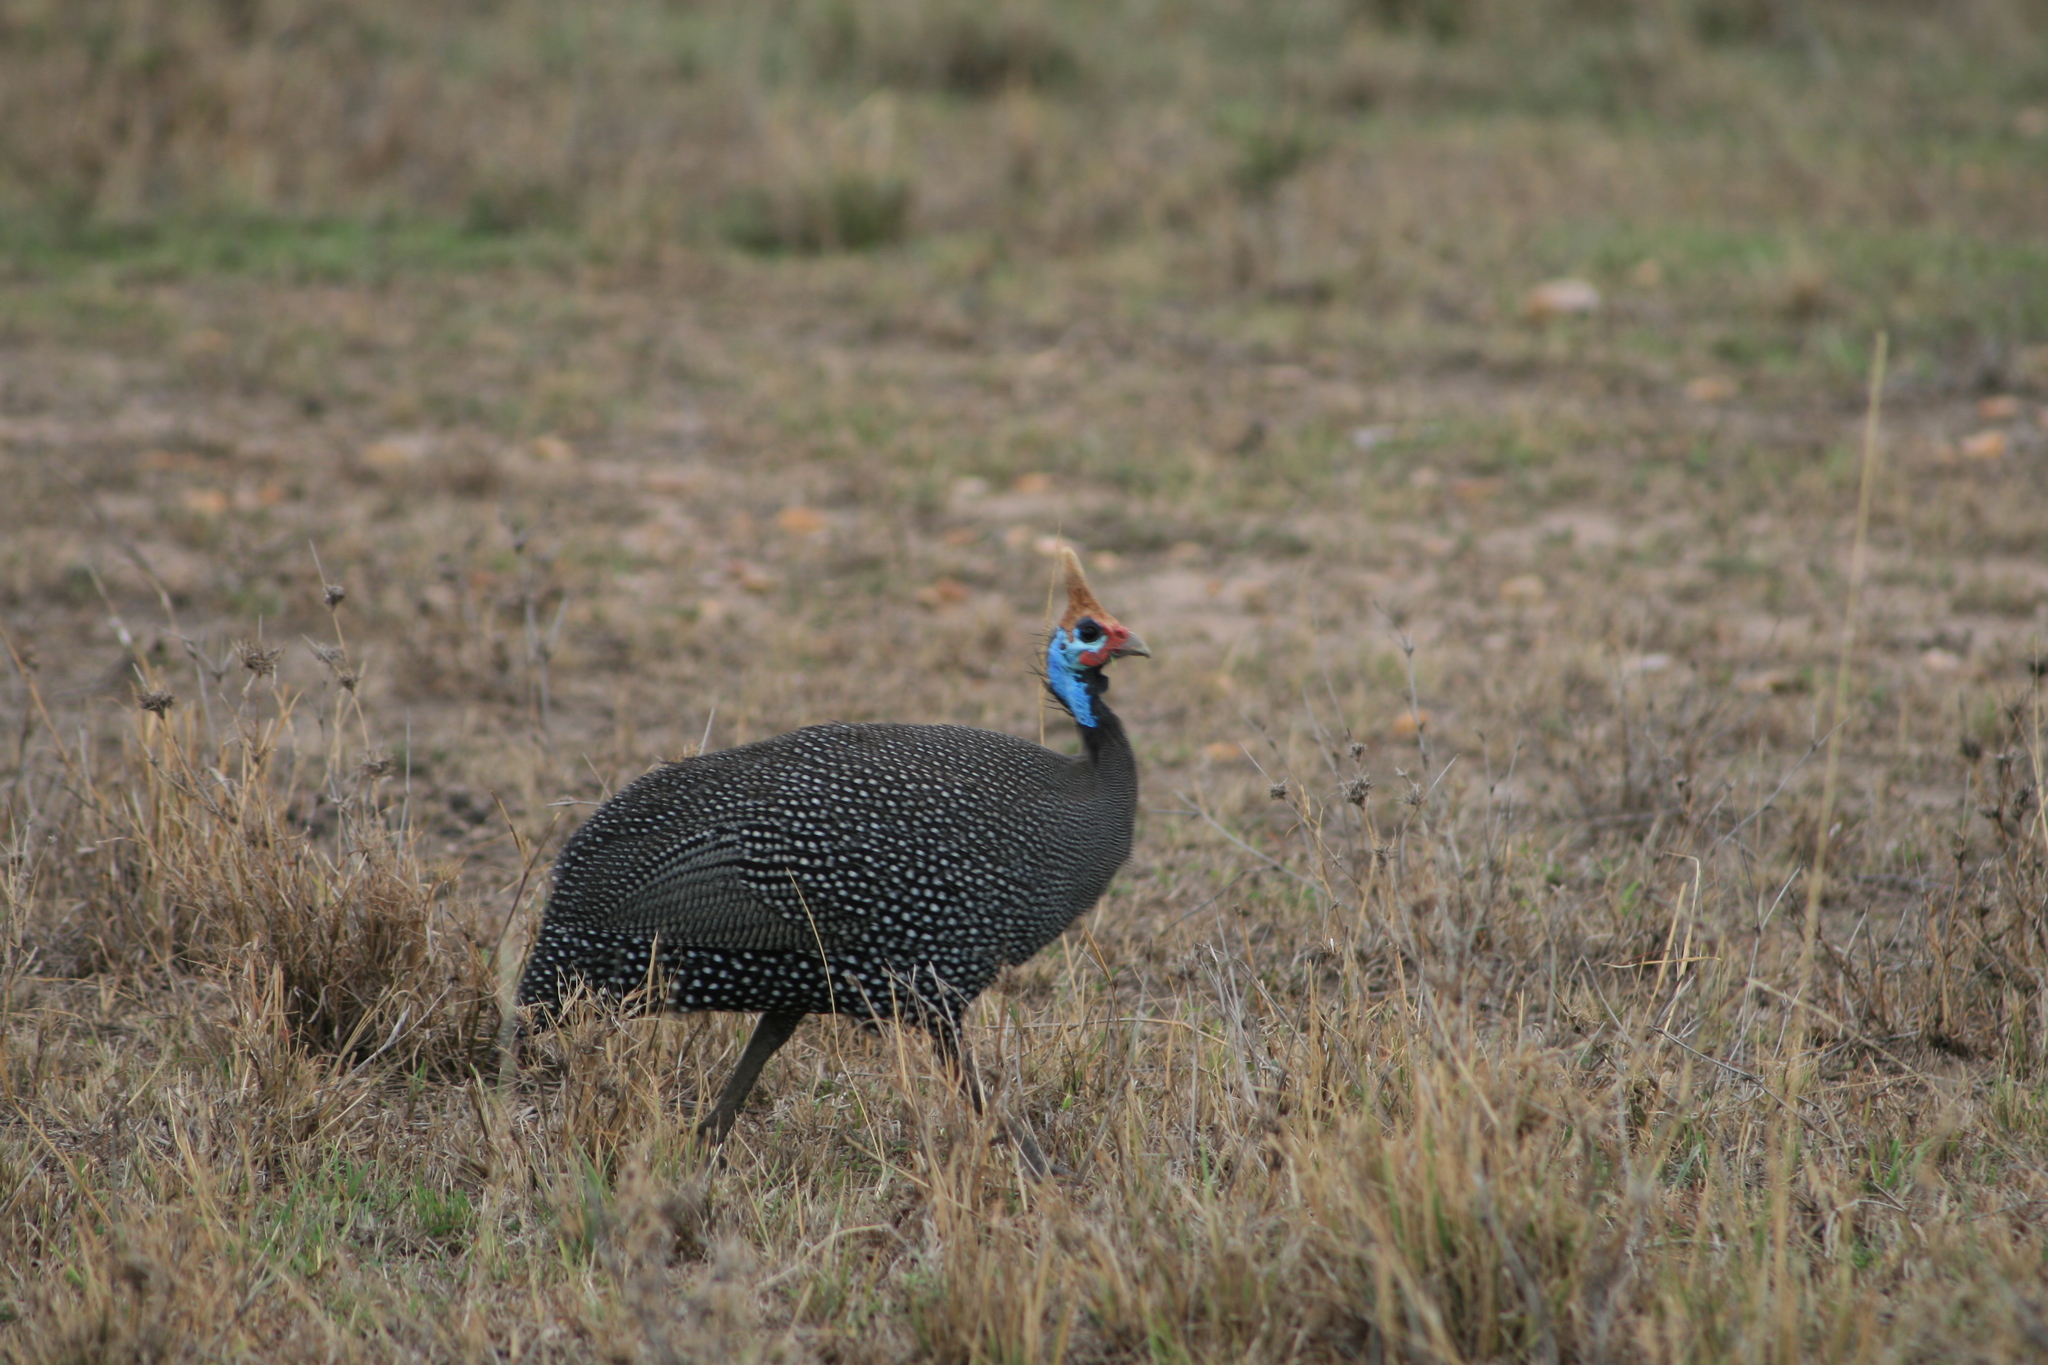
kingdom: Animalia
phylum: Chordata
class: Aves
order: Galliformes
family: Numididae
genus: Numida
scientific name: Numida meleagris
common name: Helmeted guineafowl
